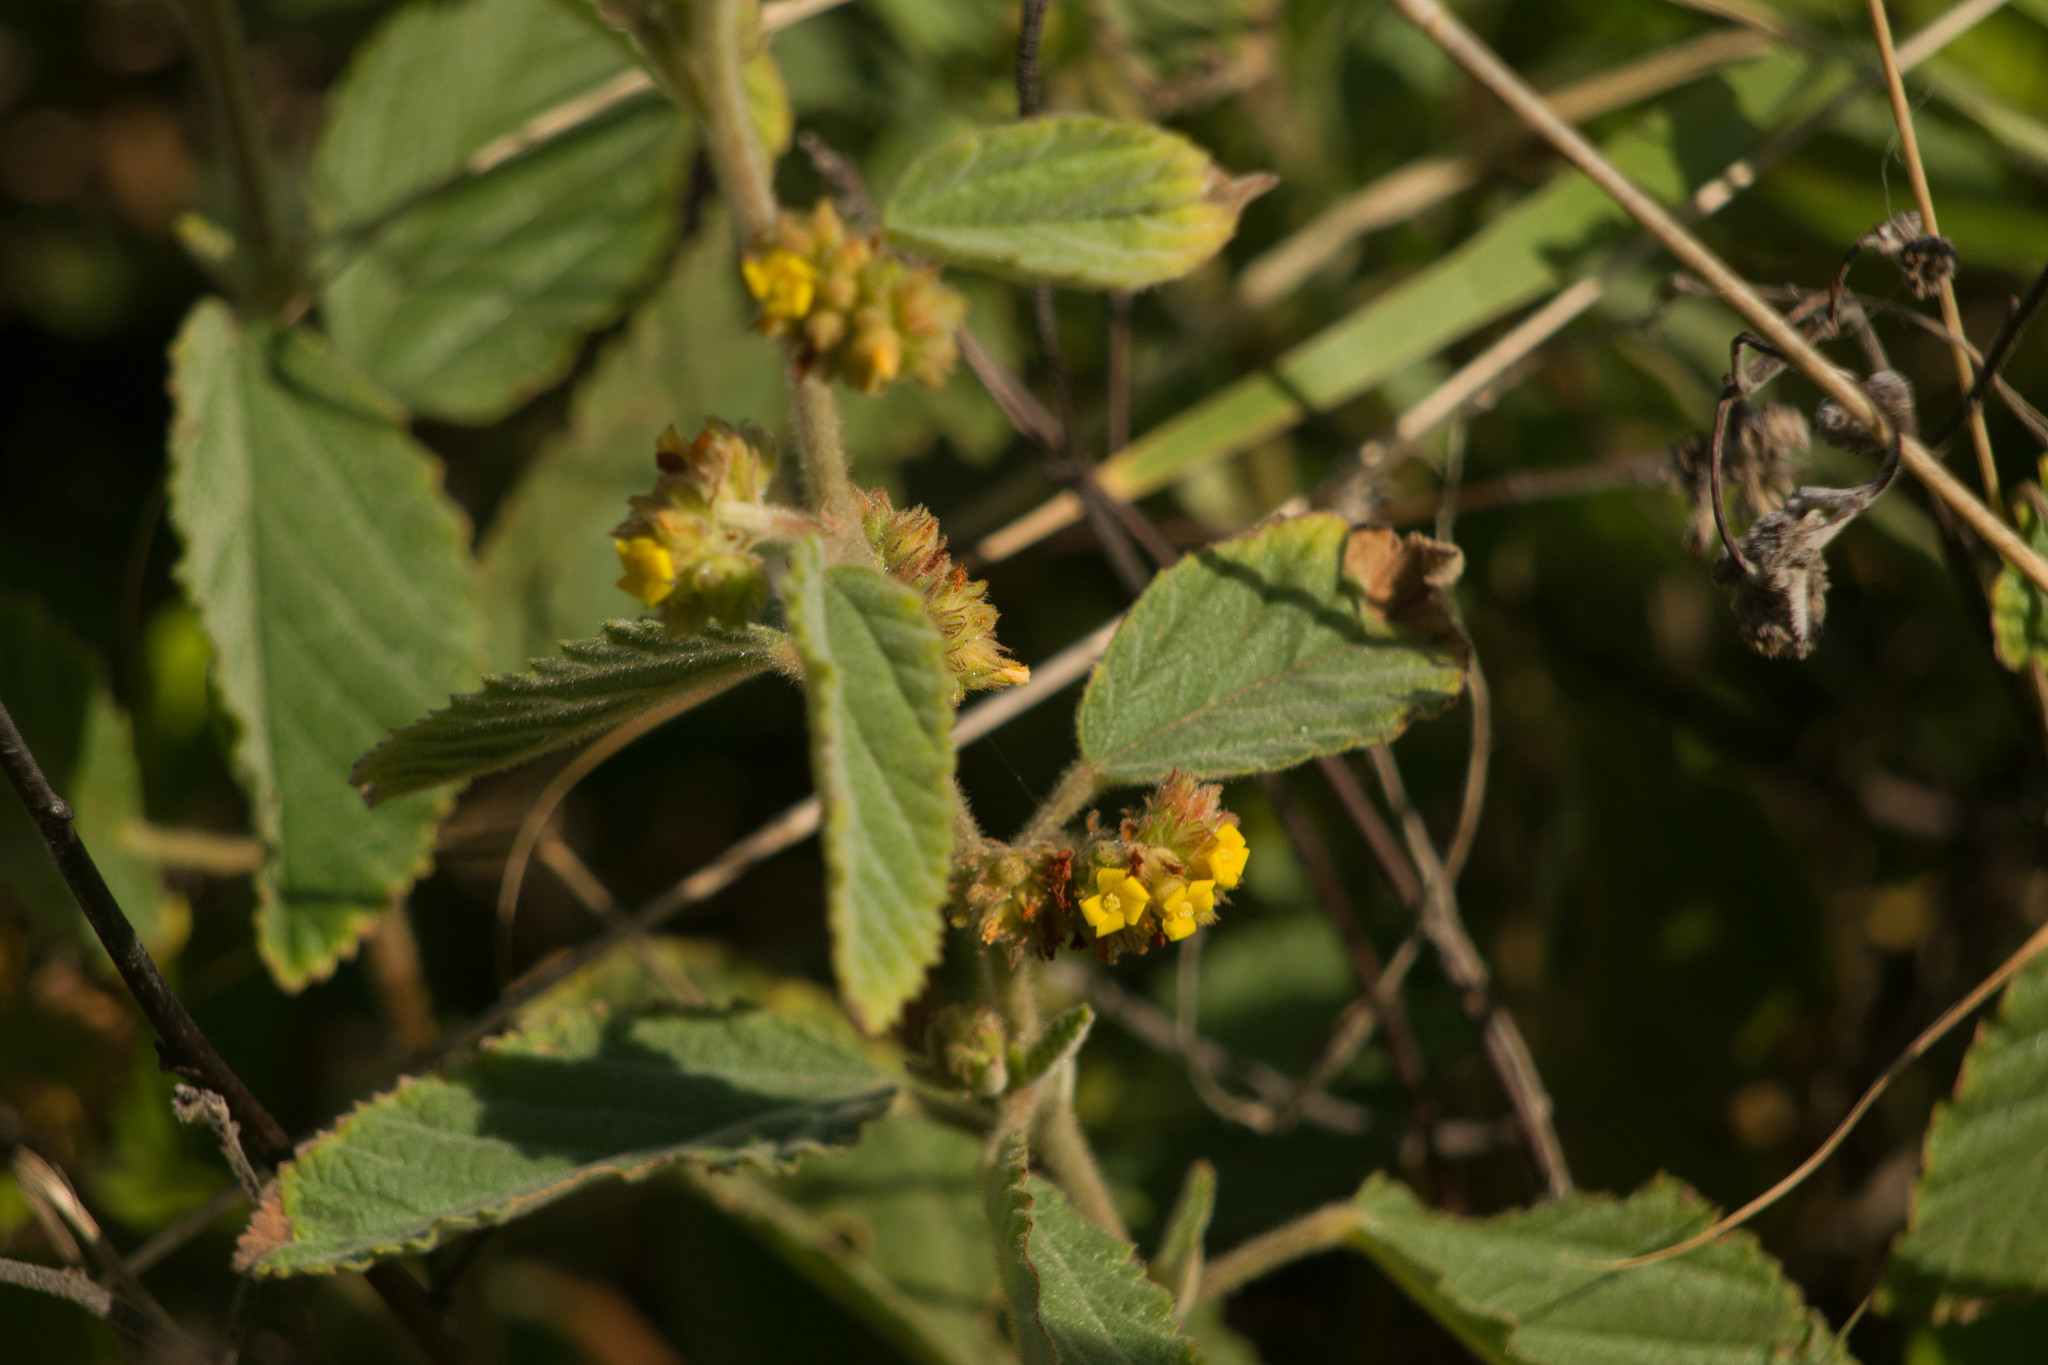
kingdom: Plantae
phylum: Tracheophyta
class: Magnoliopsida
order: Malvales
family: Malvaceae
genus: Waltheria
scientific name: Waltheria indica
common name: Leather-coat
